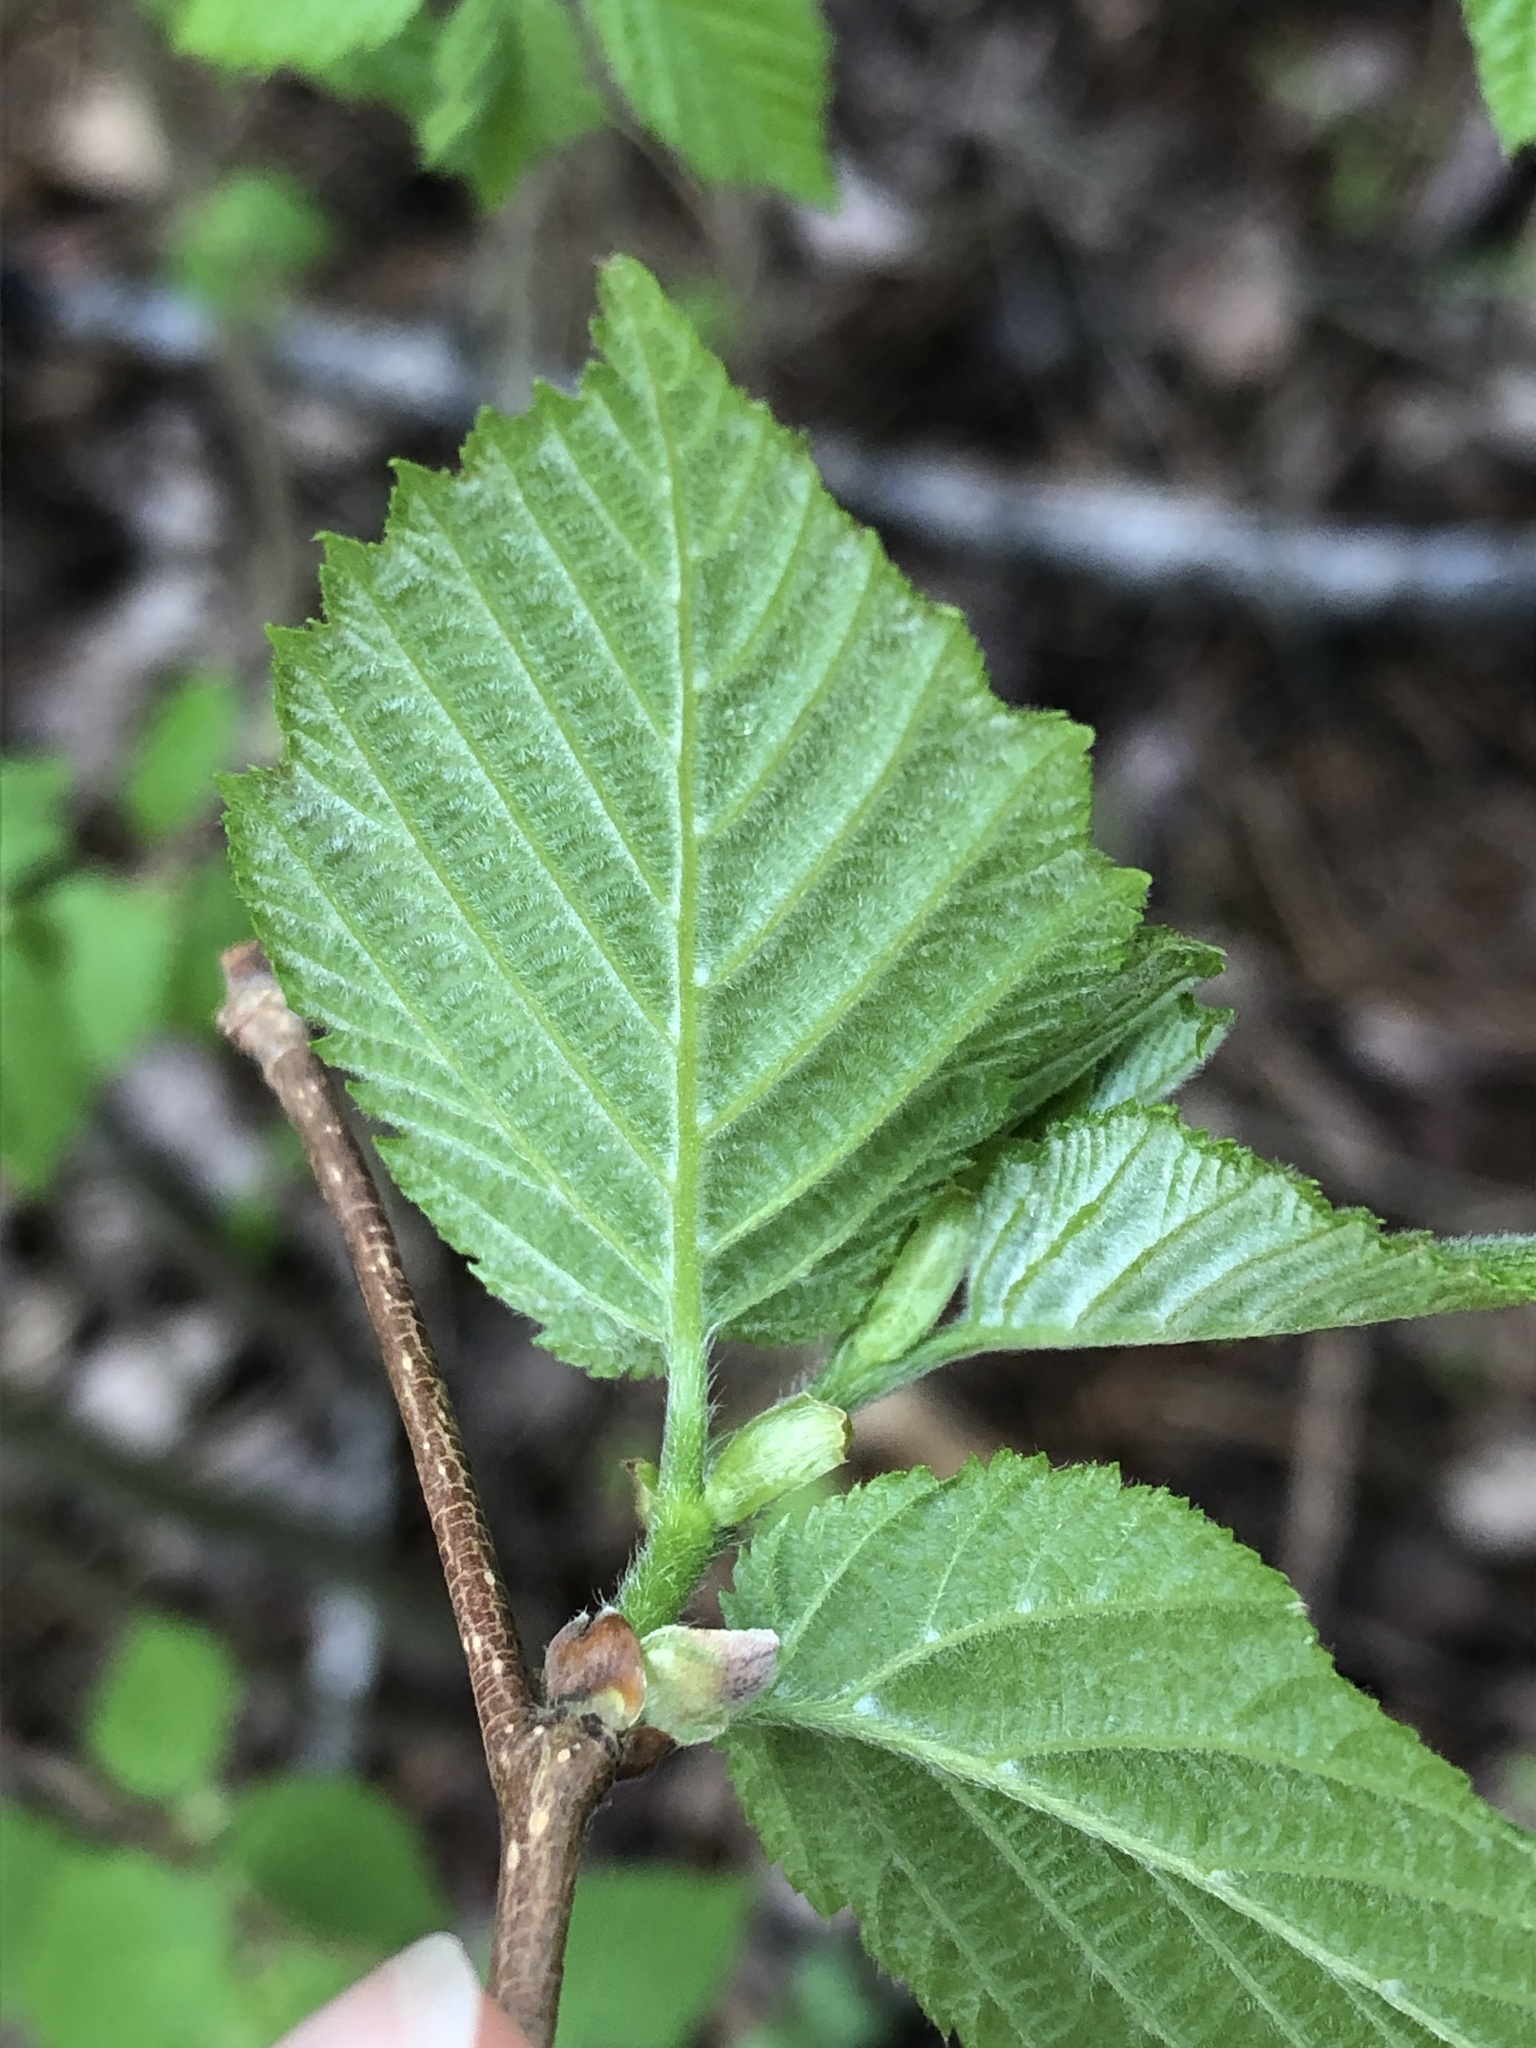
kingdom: Plantae
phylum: Tracheophyta
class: Magnoliopsida
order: Fagales
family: Betulaceae
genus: Corylus
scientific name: Corylus cornuta
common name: Beaked hazel
